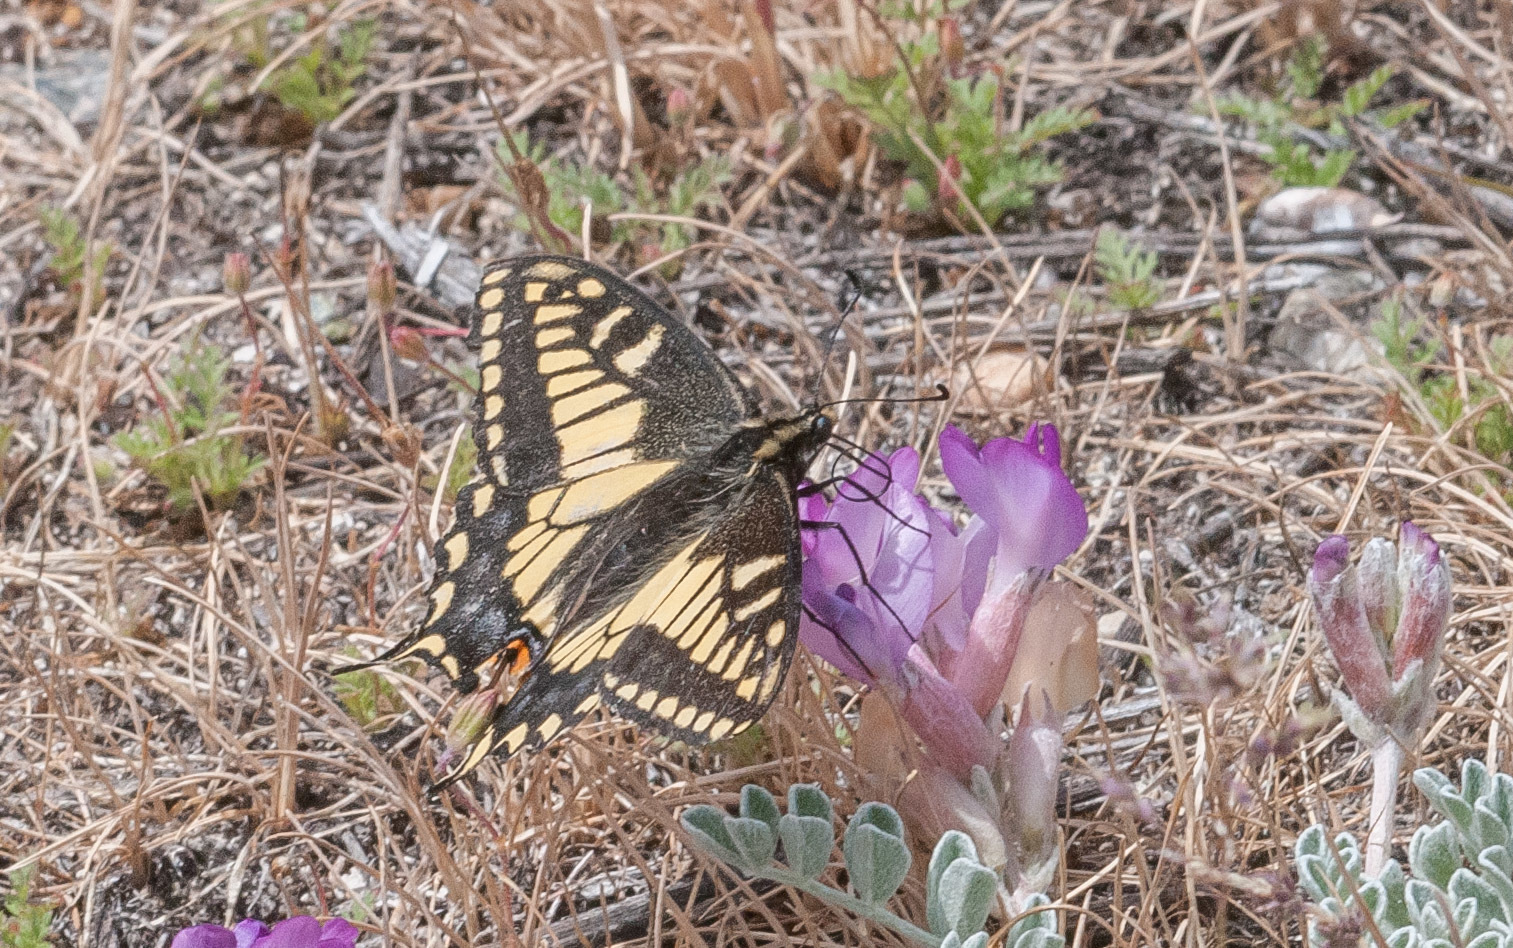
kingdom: Animalia
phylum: Arthropoda
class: Insecta
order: Lepidoptera
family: Papilionidae
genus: Papilio
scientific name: Papilio zelicaon
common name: Anise swallowtail
